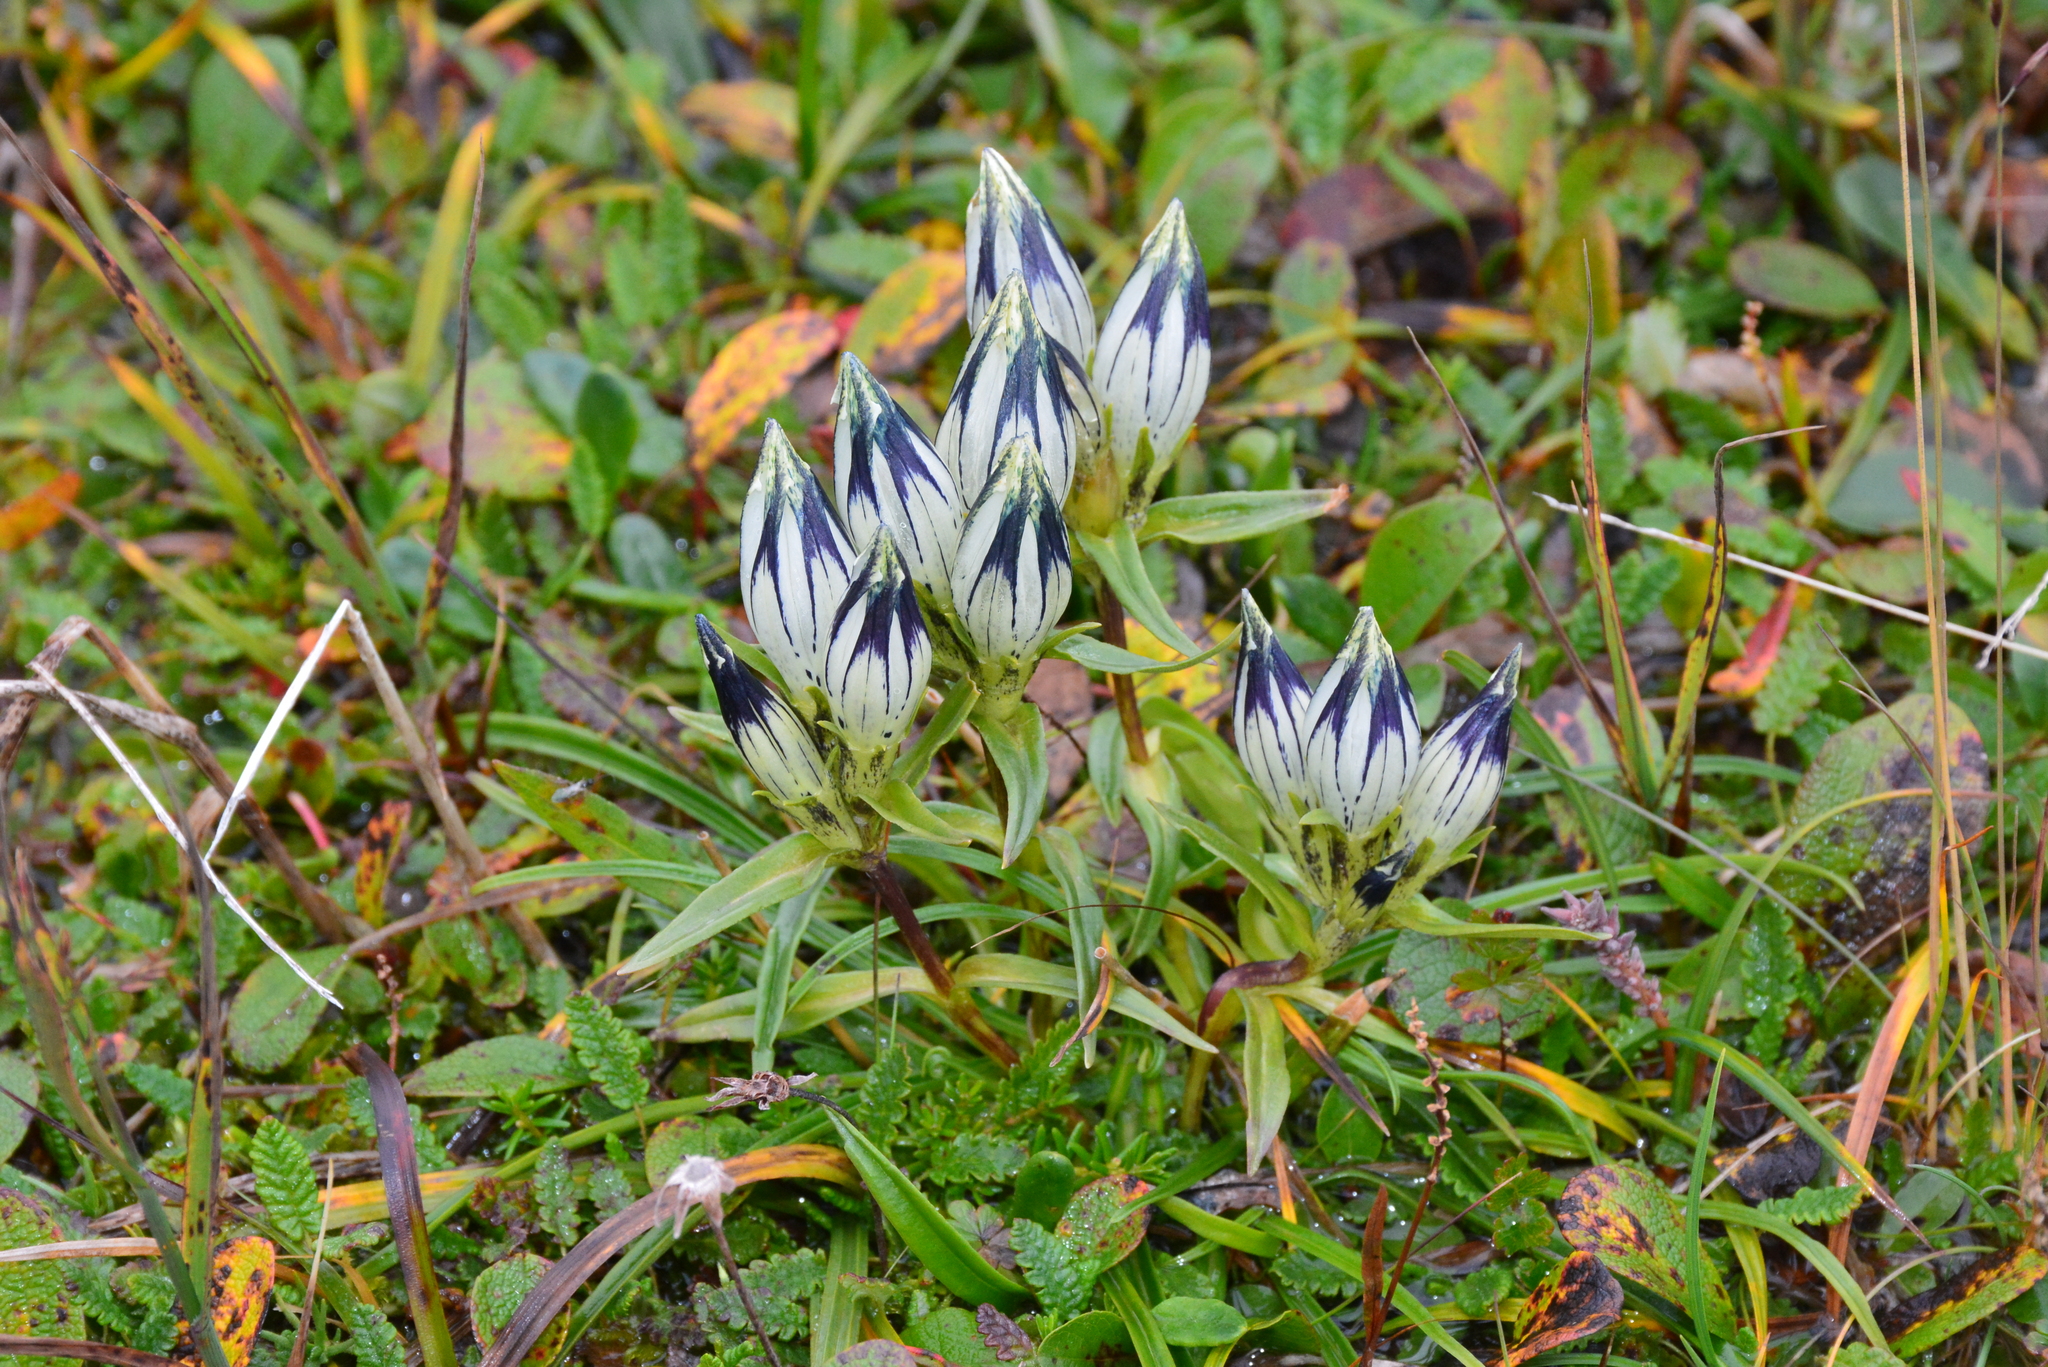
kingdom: Plantae
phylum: Tracheophyta
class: Magnoliopsida
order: Gentianales
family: Gentianaceae
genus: Gentiana
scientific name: Gentiana algida
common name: Arctic gentian
